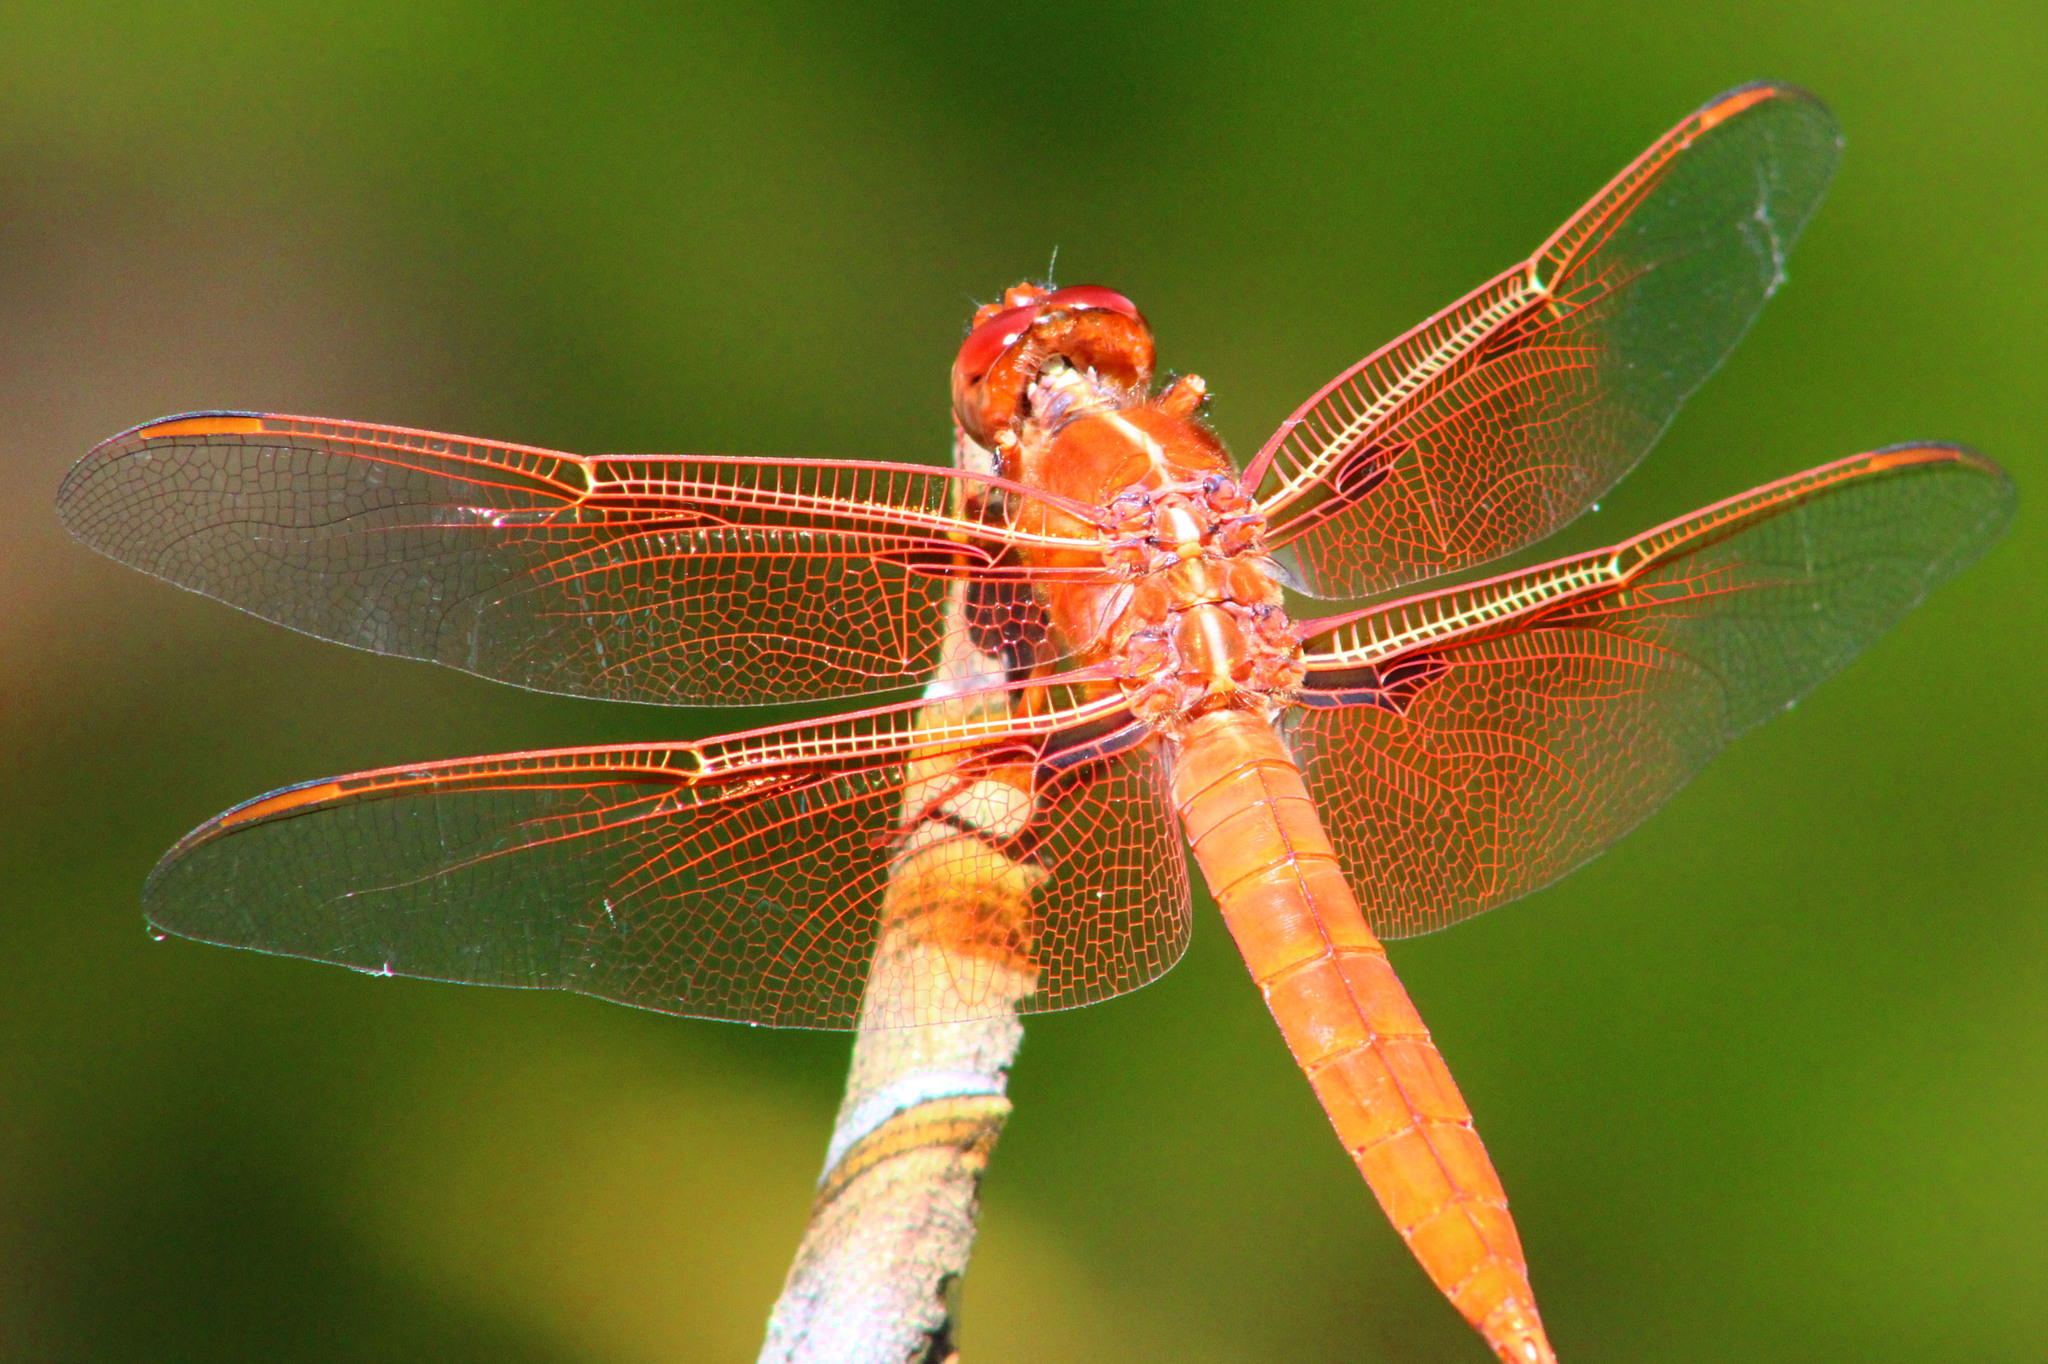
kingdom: Animalia
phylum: Arthropoda
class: Insecta
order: Odonata
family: Libellulidae
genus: Libellula
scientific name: Libellula saturata
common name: Flame skimmer
